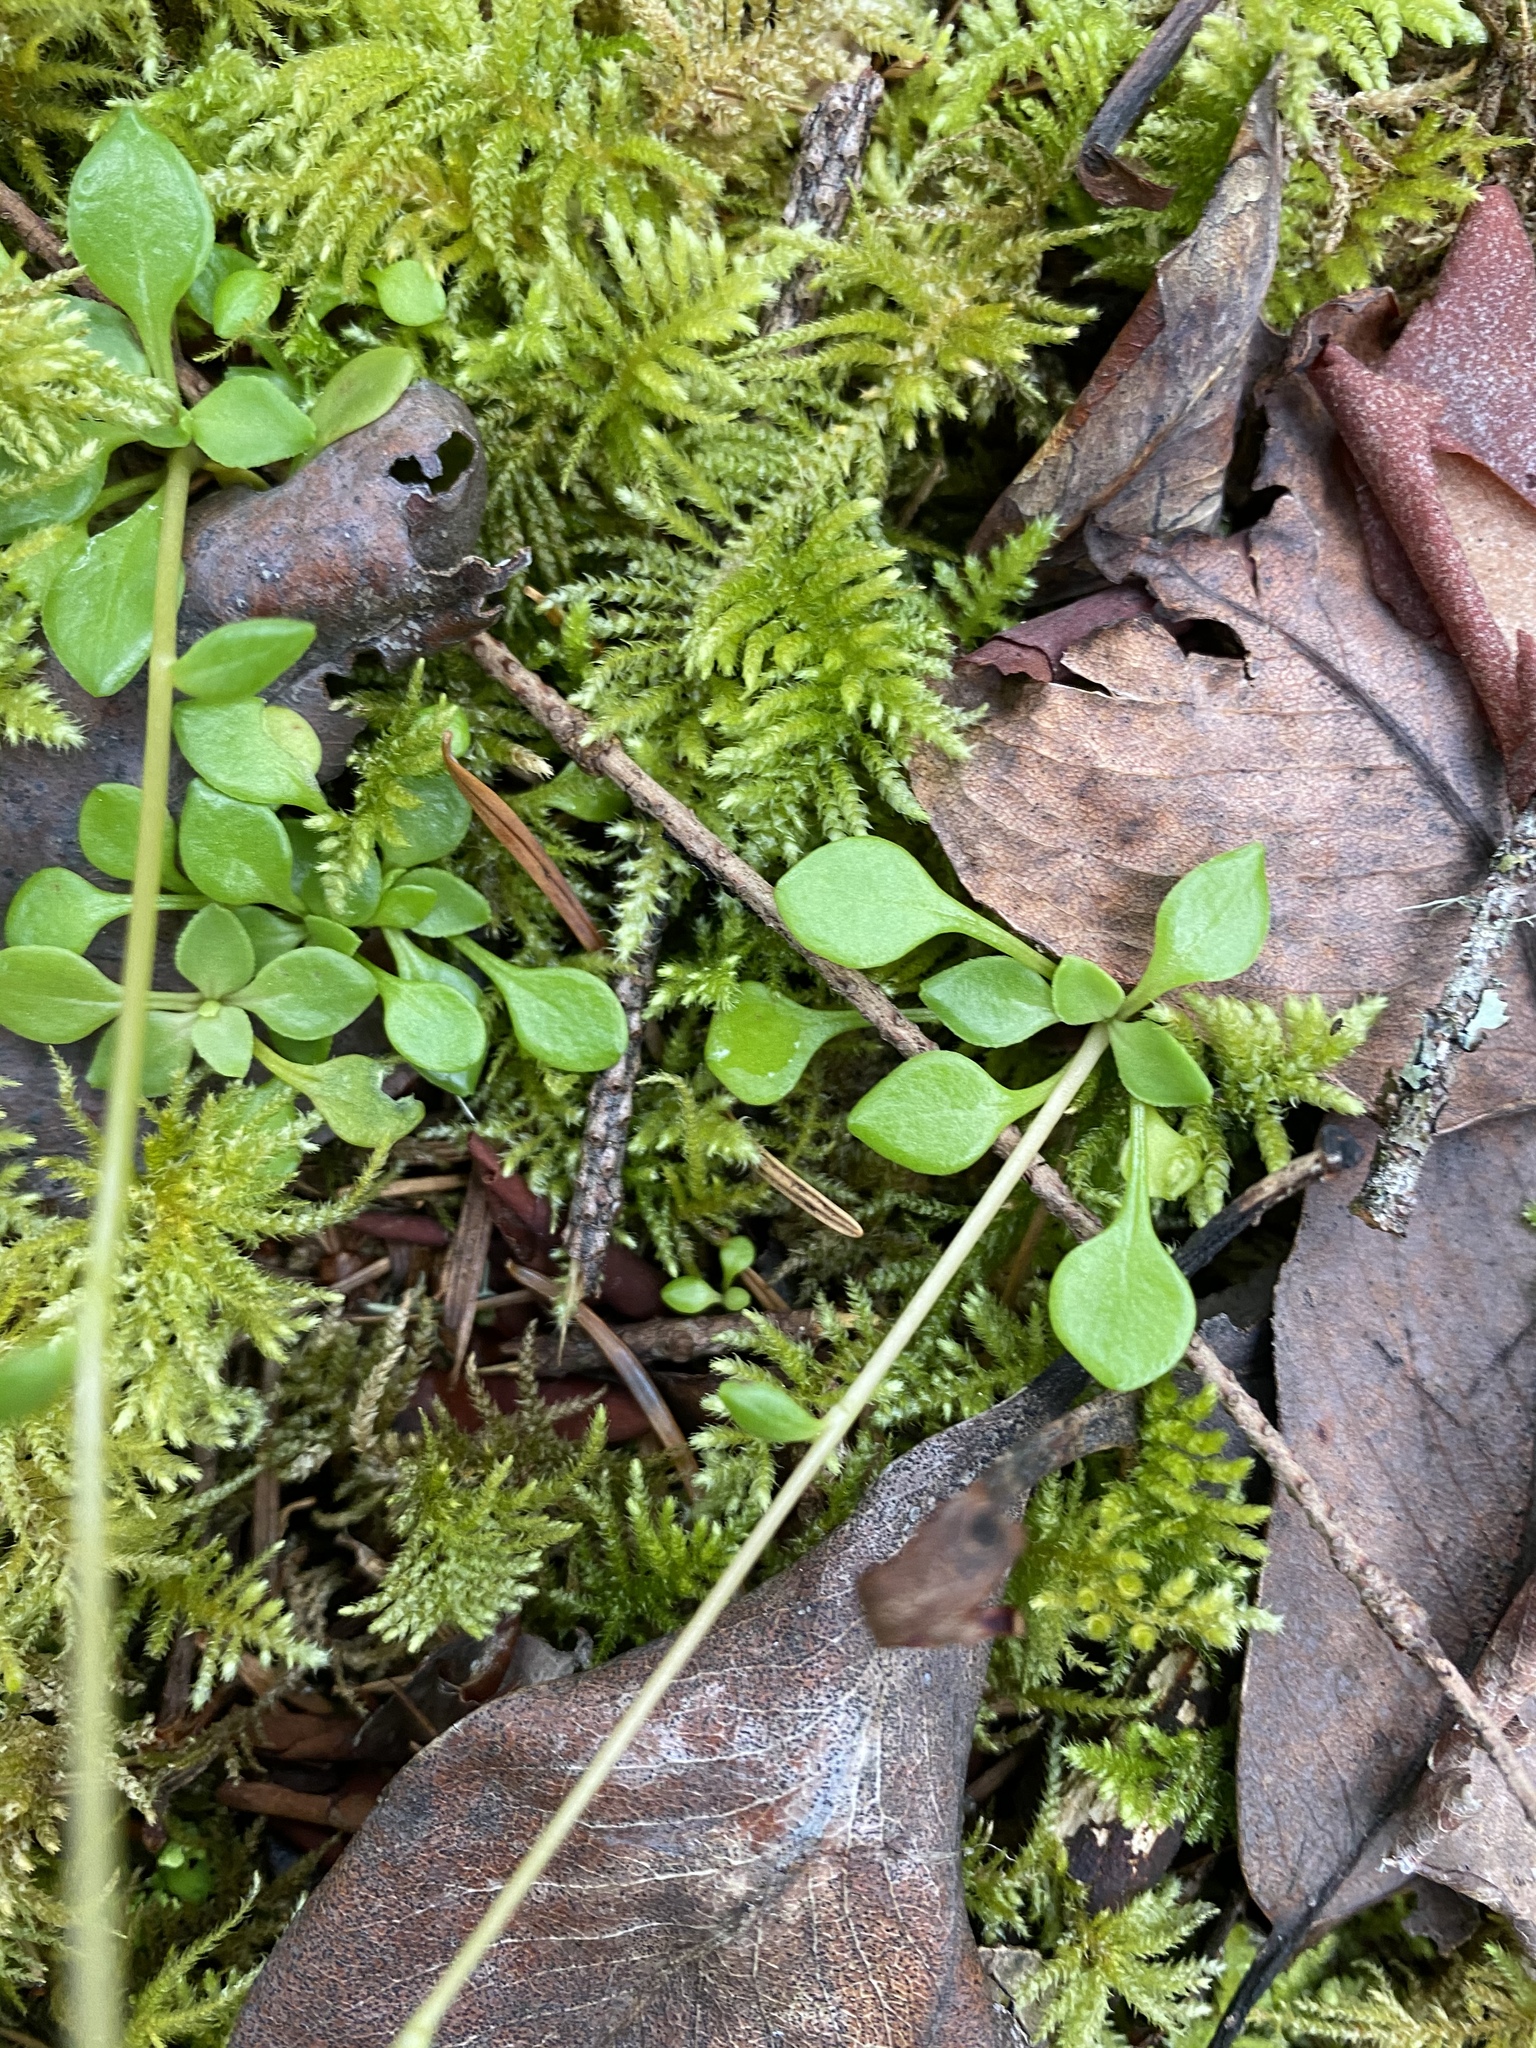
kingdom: Plantae
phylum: Tracheophyta
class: Magnoliopsida
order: Caryophyllales
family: Montiaceae
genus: Montia
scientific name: Montia parvifolia
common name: Small-leaved blinks
